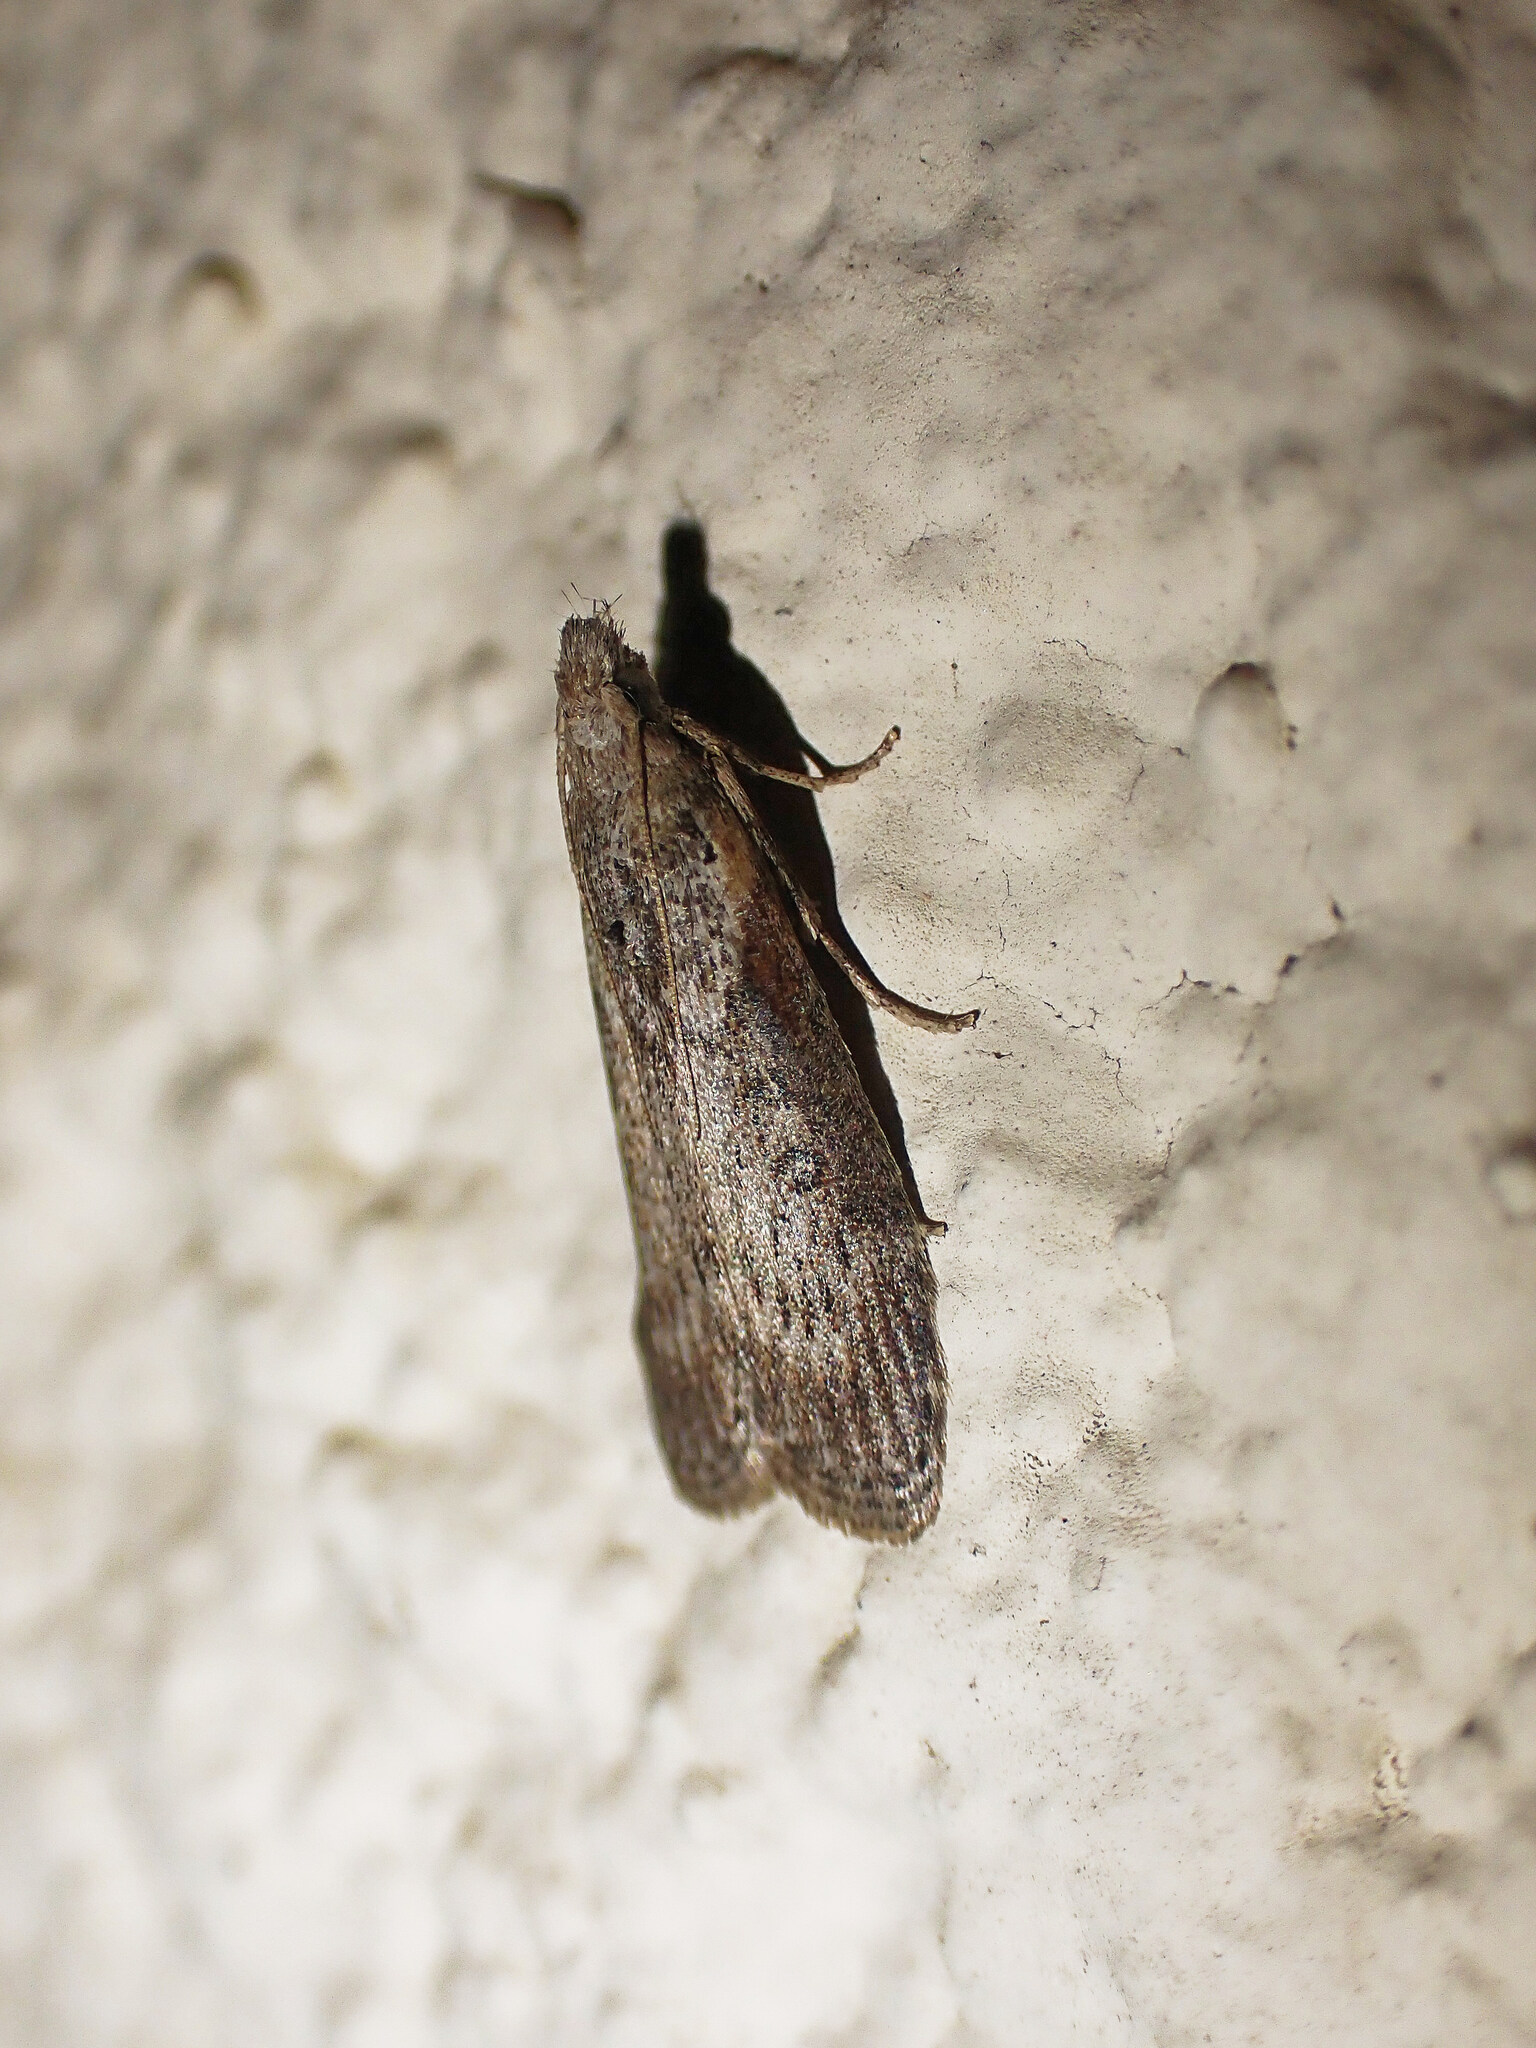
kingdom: Animalia
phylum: Arthropoda
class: Insecta
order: Lepidoptera
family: Pyralidae
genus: Lamoria
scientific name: Lamoria anella
